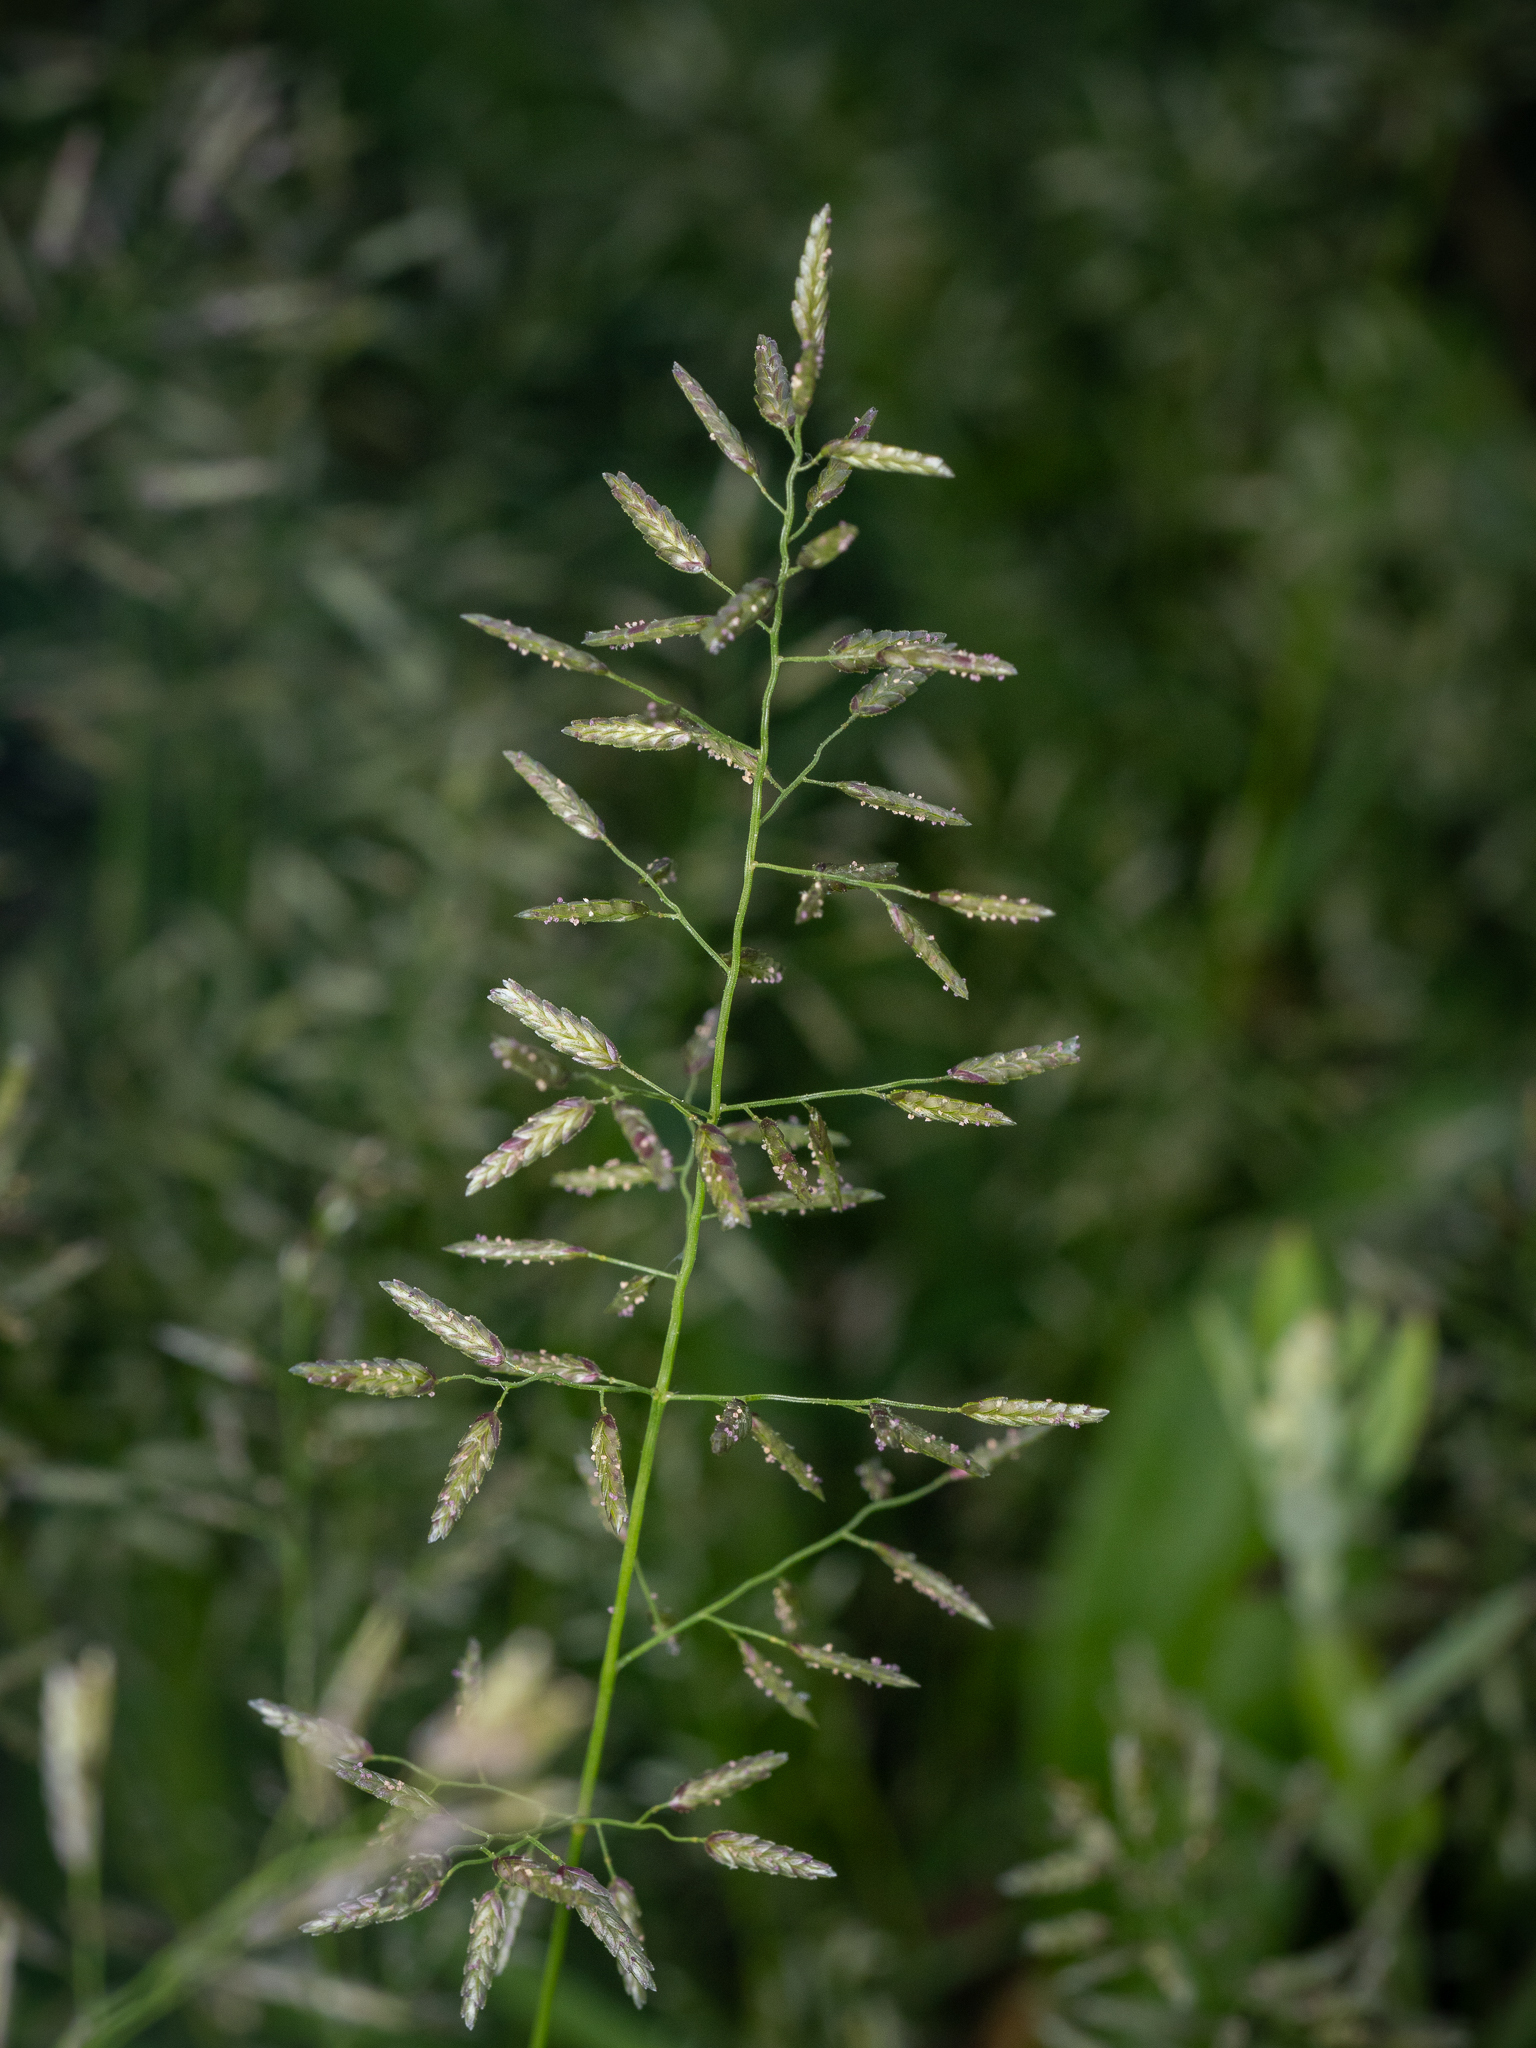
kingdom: Plantae
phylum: Tracheophyta
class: Liliopsida
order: Poales
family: Poaceae
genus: Eragrostis
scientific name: Eragrostis minor
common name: Small love-grass
